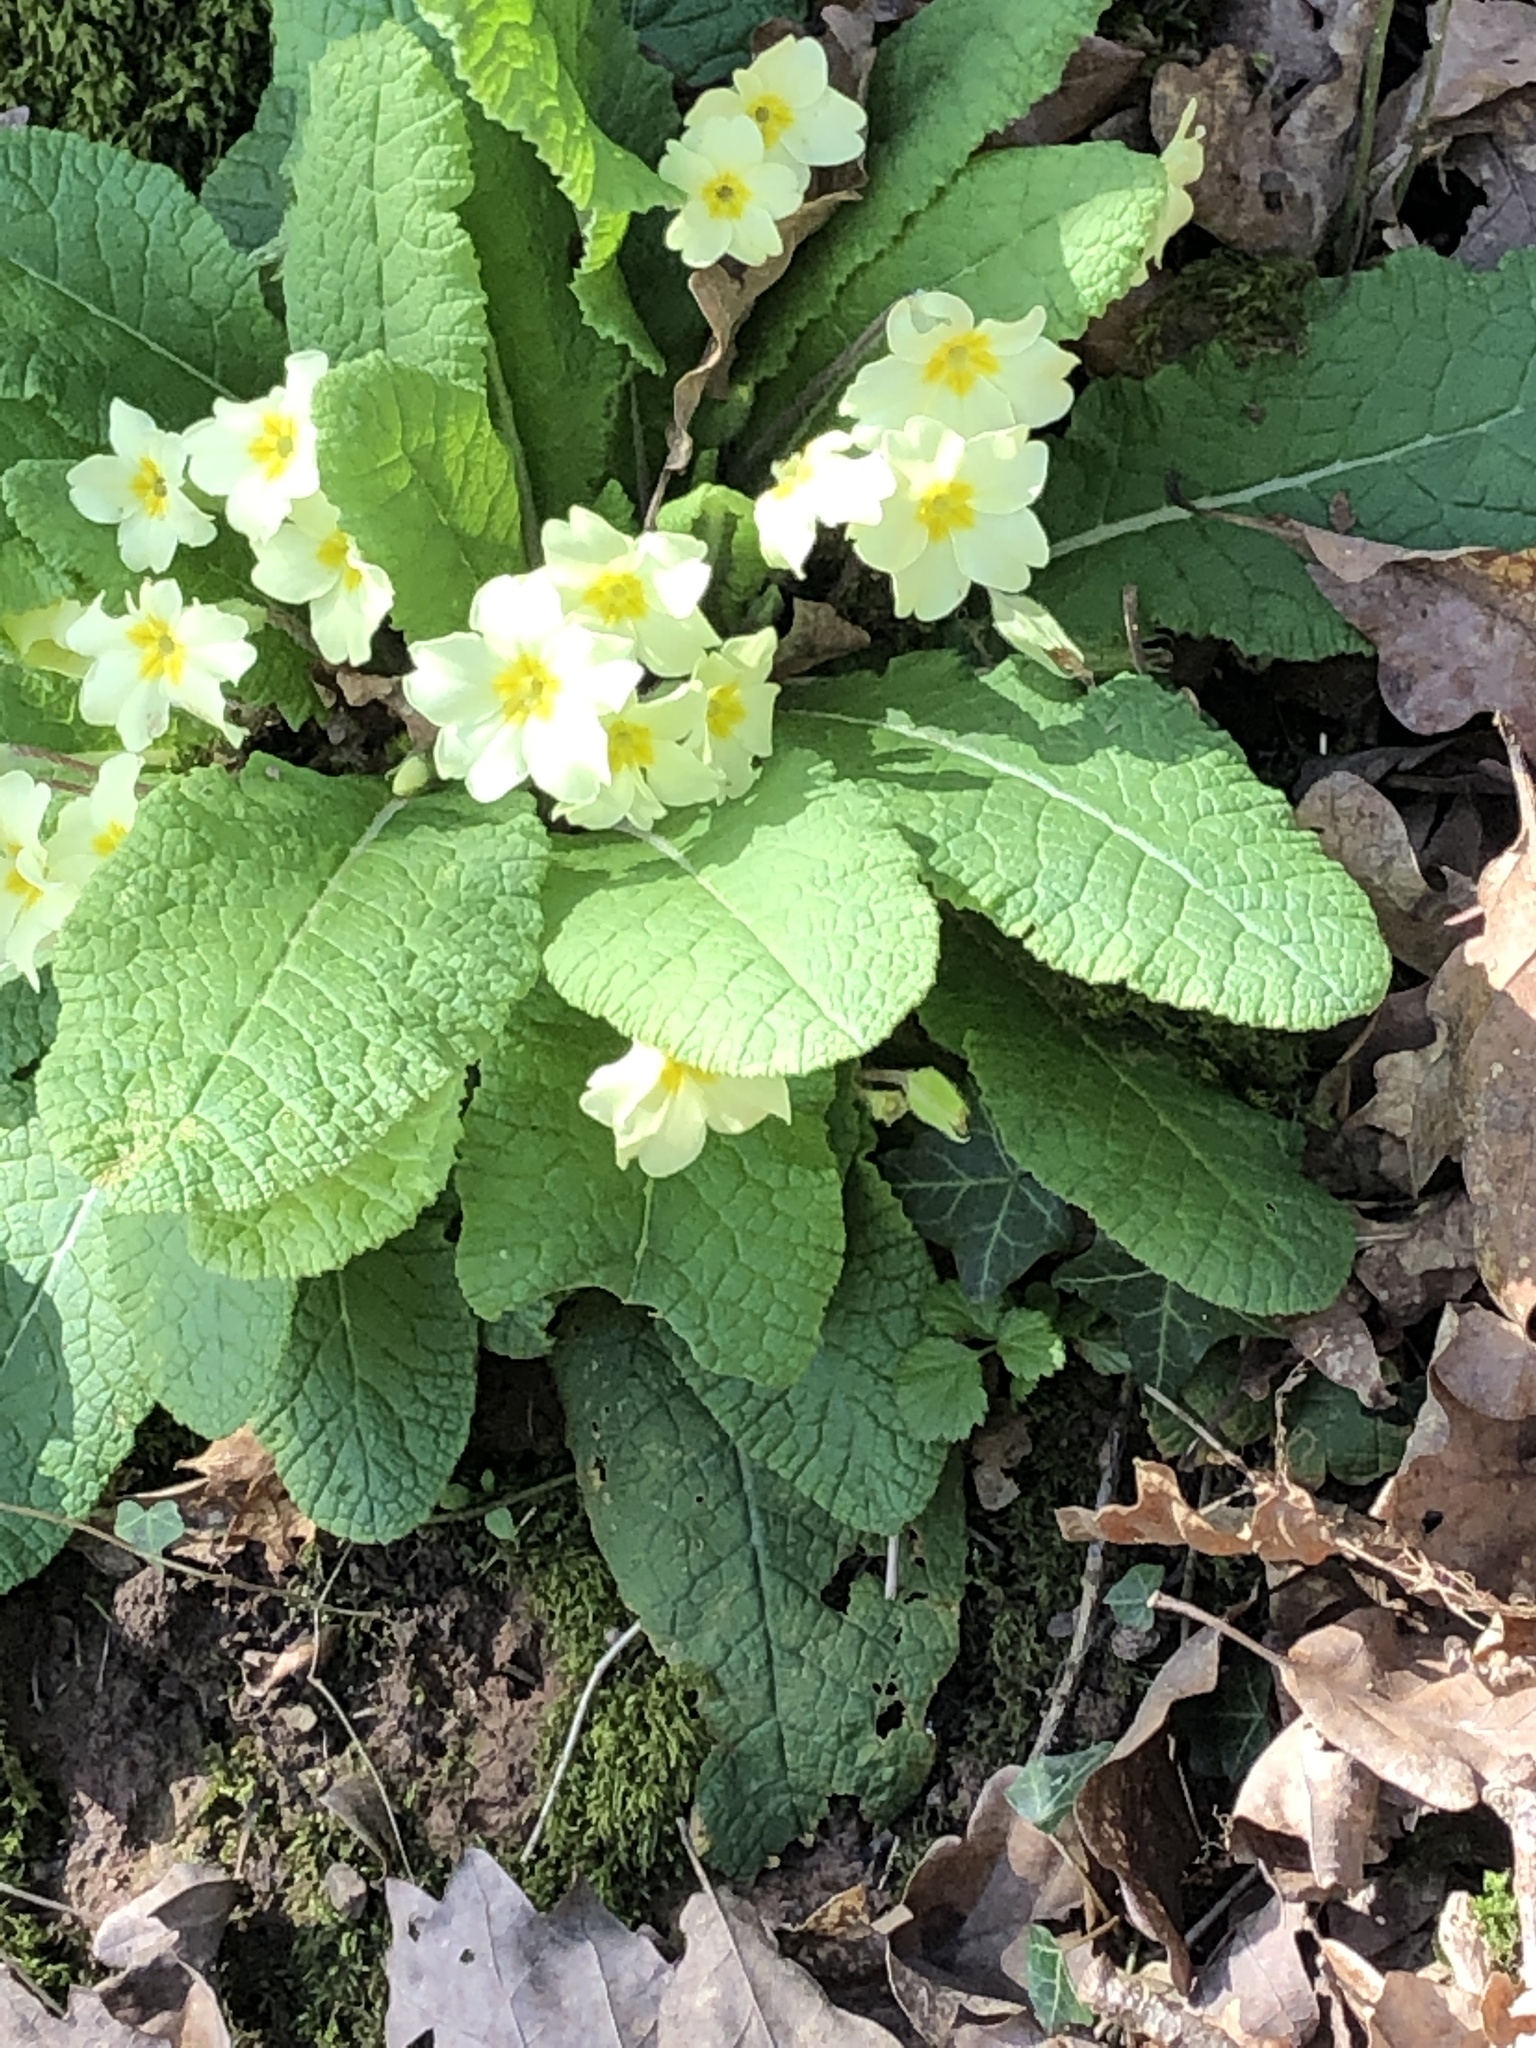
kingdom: Plantae
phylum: Tracheophyta
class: Magnoliopsida
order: Ericales
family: Primulaceae
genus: Primula
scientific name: Primula vulgaris
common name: Primrose
